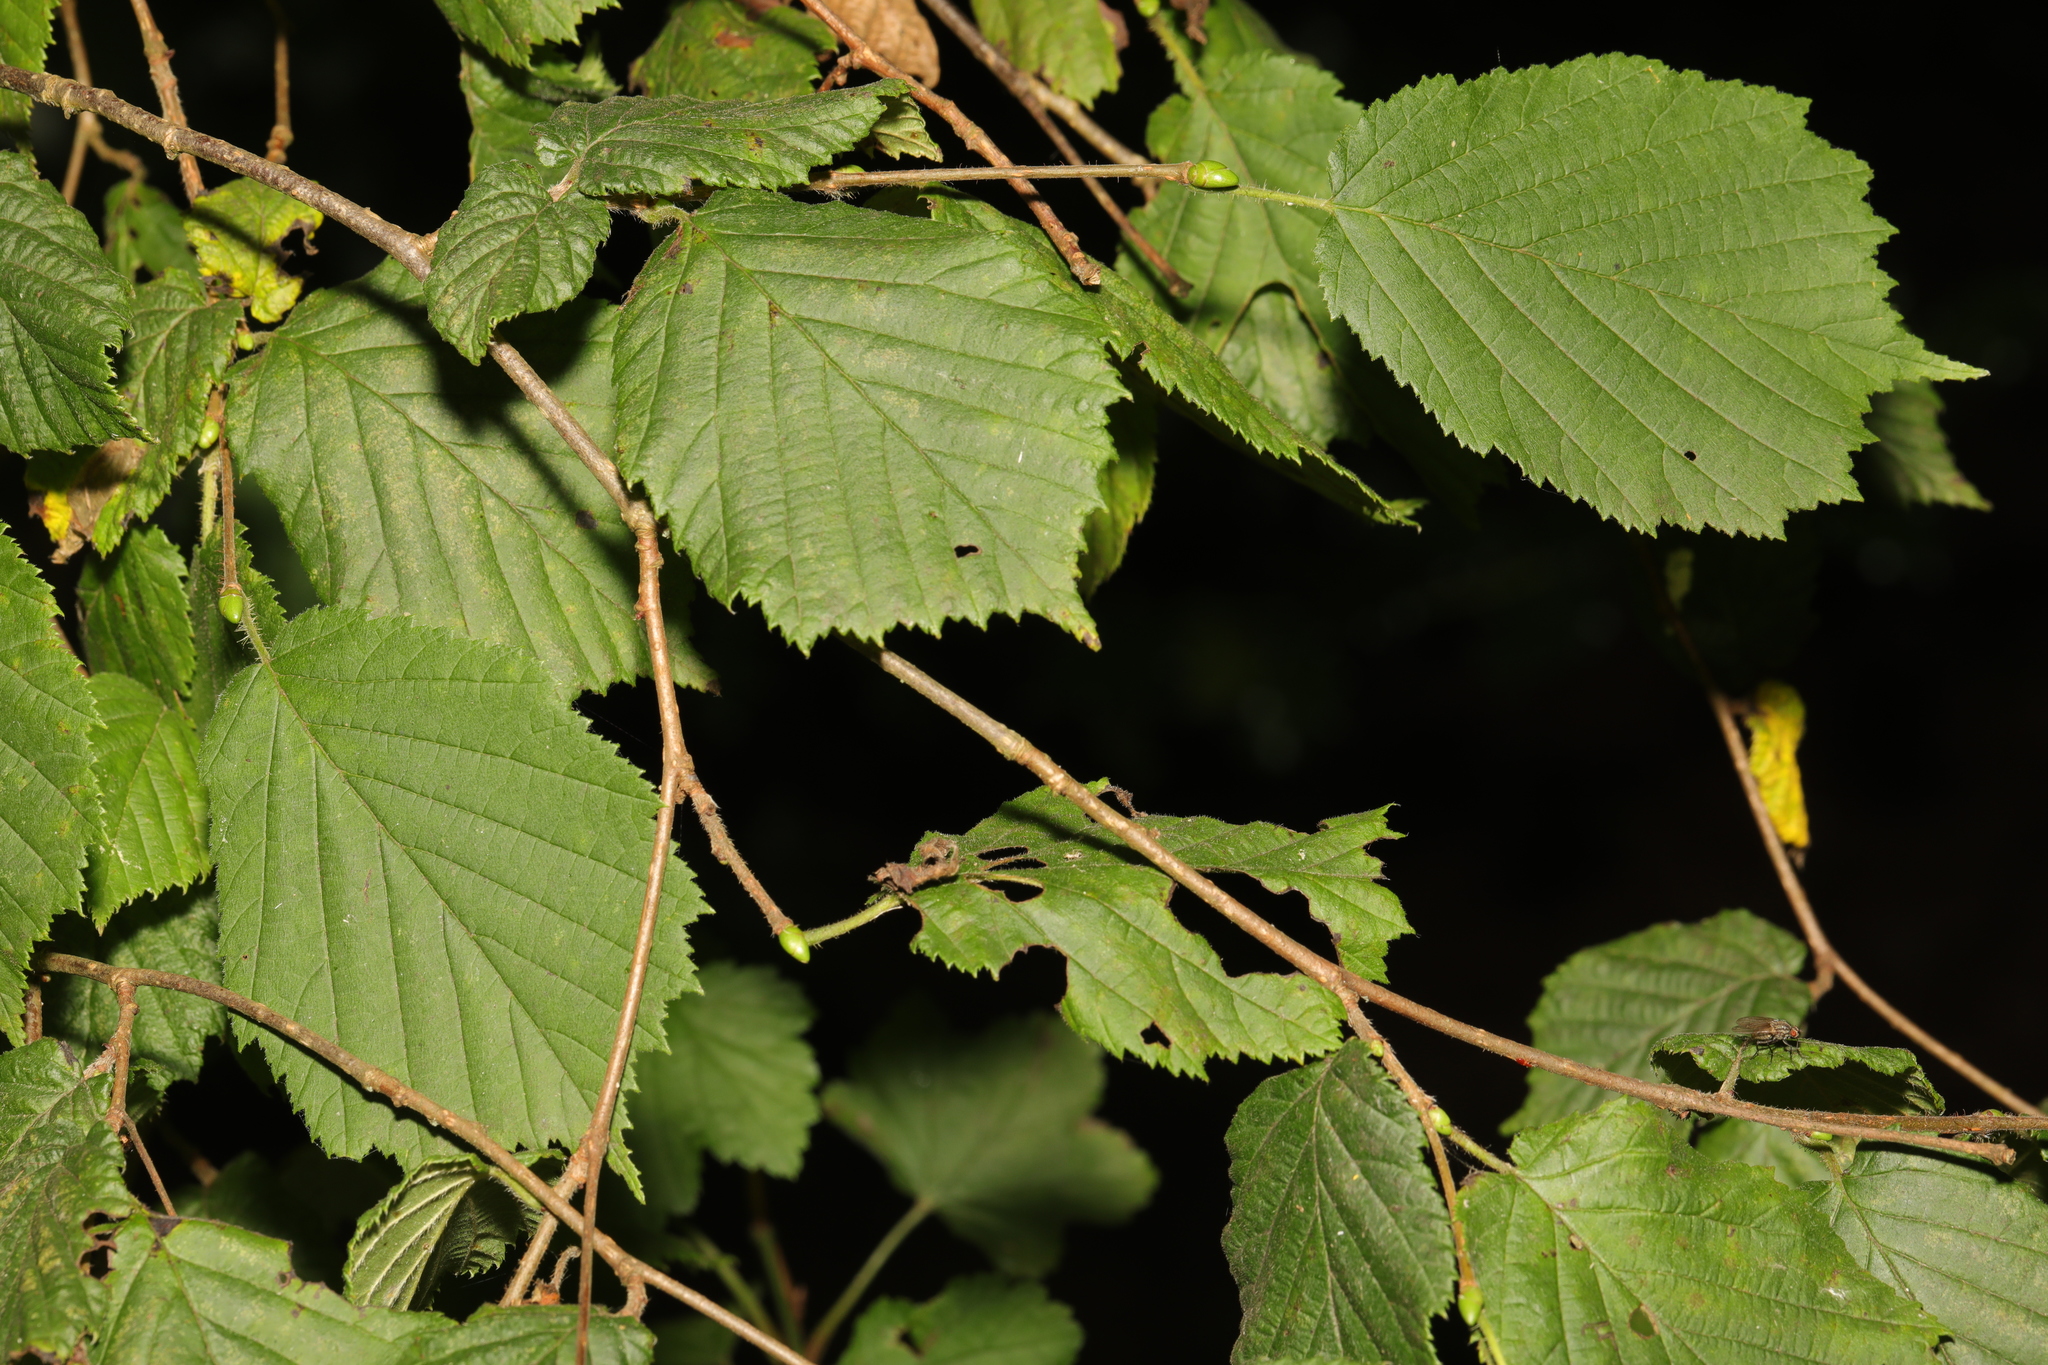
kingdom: Plantae
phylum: Tracheophyta
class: Magnoliopsida
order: Fagales
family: Betulaceae
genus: Corylus
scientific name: Corylus avellana
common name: European hazel
